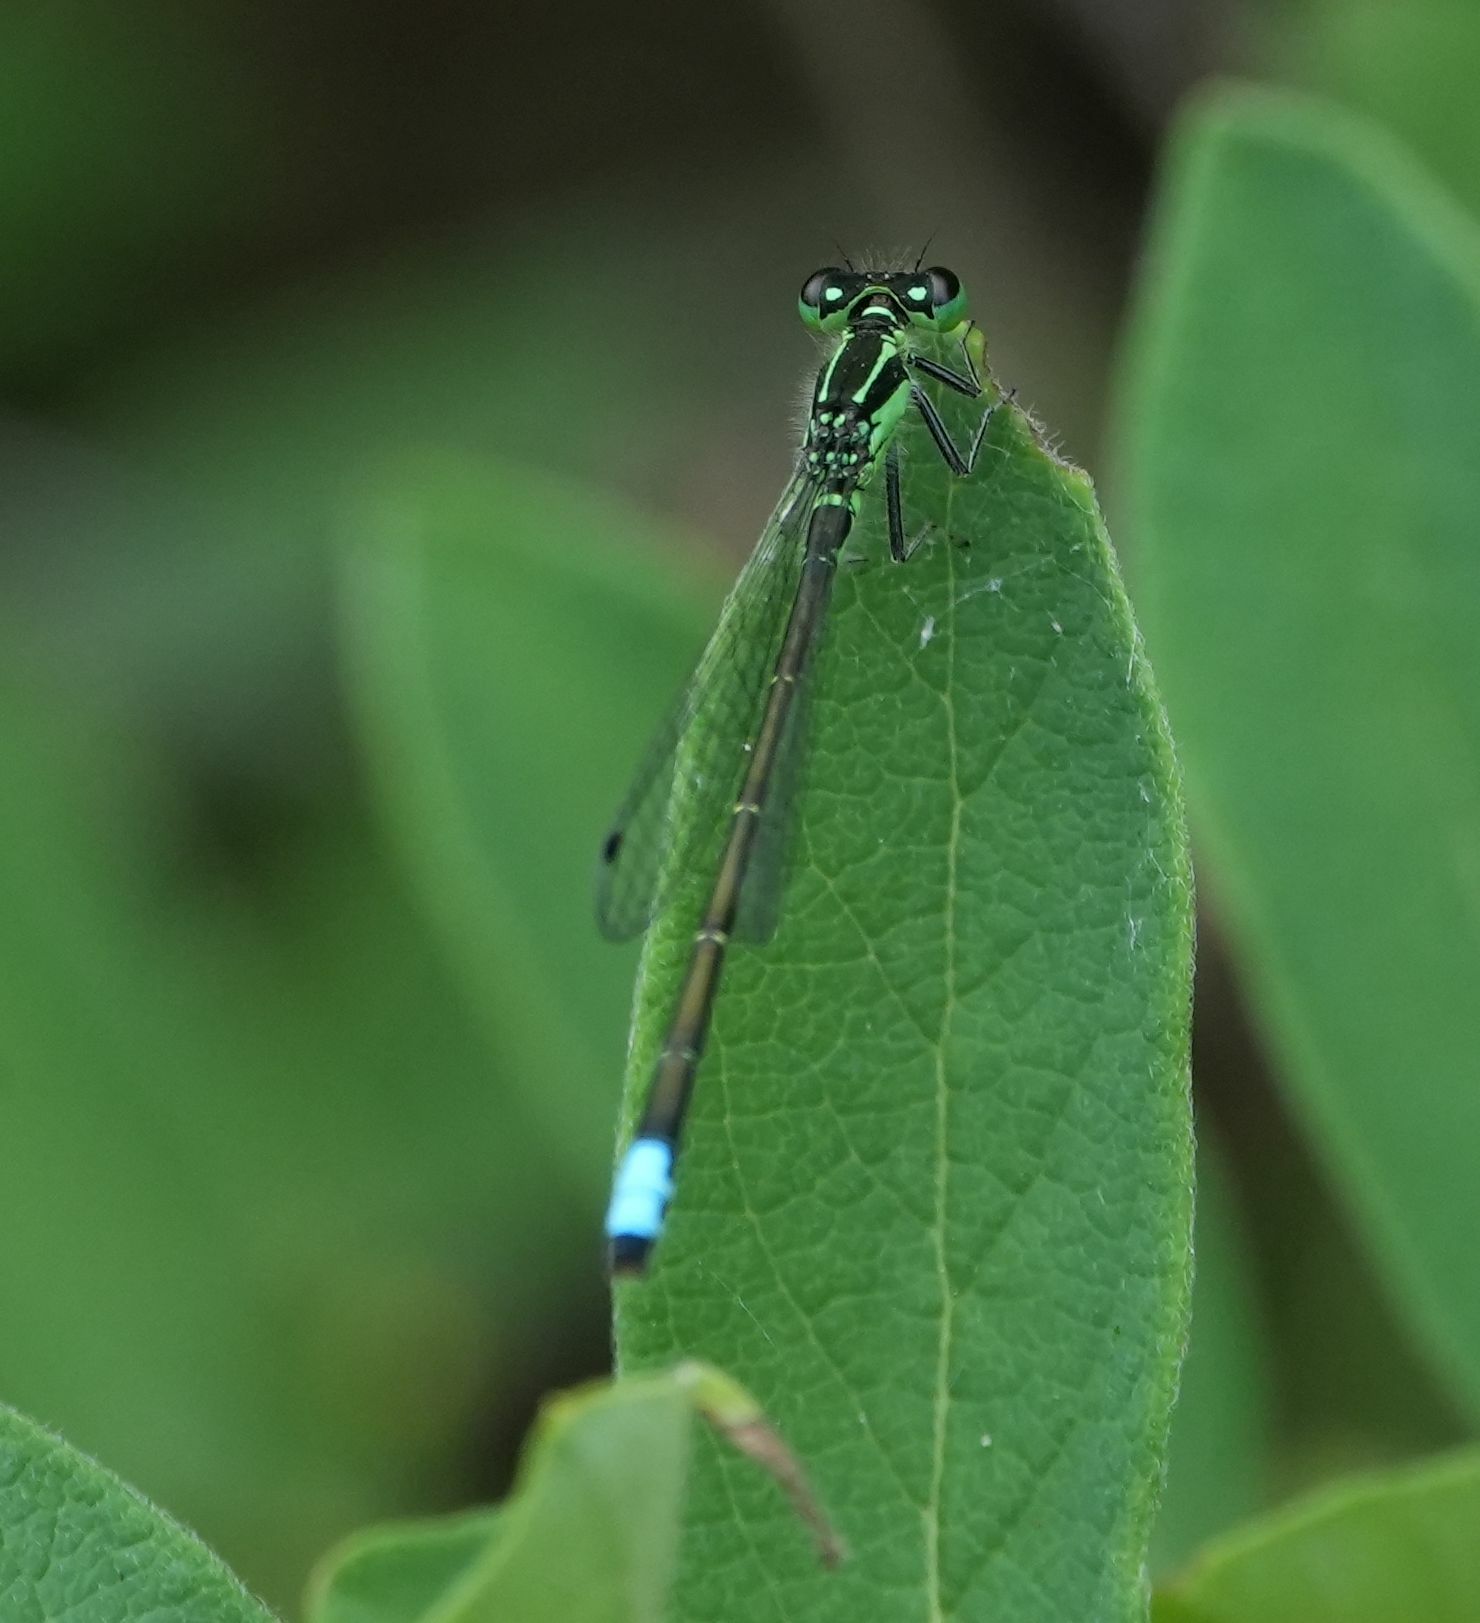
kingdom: Animalia
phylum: Arthropoda
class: Insecta
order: Odonata
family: Coenagrionidae
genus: Ischnura
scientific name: Ischnura verticalis
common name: Eastern forktail
